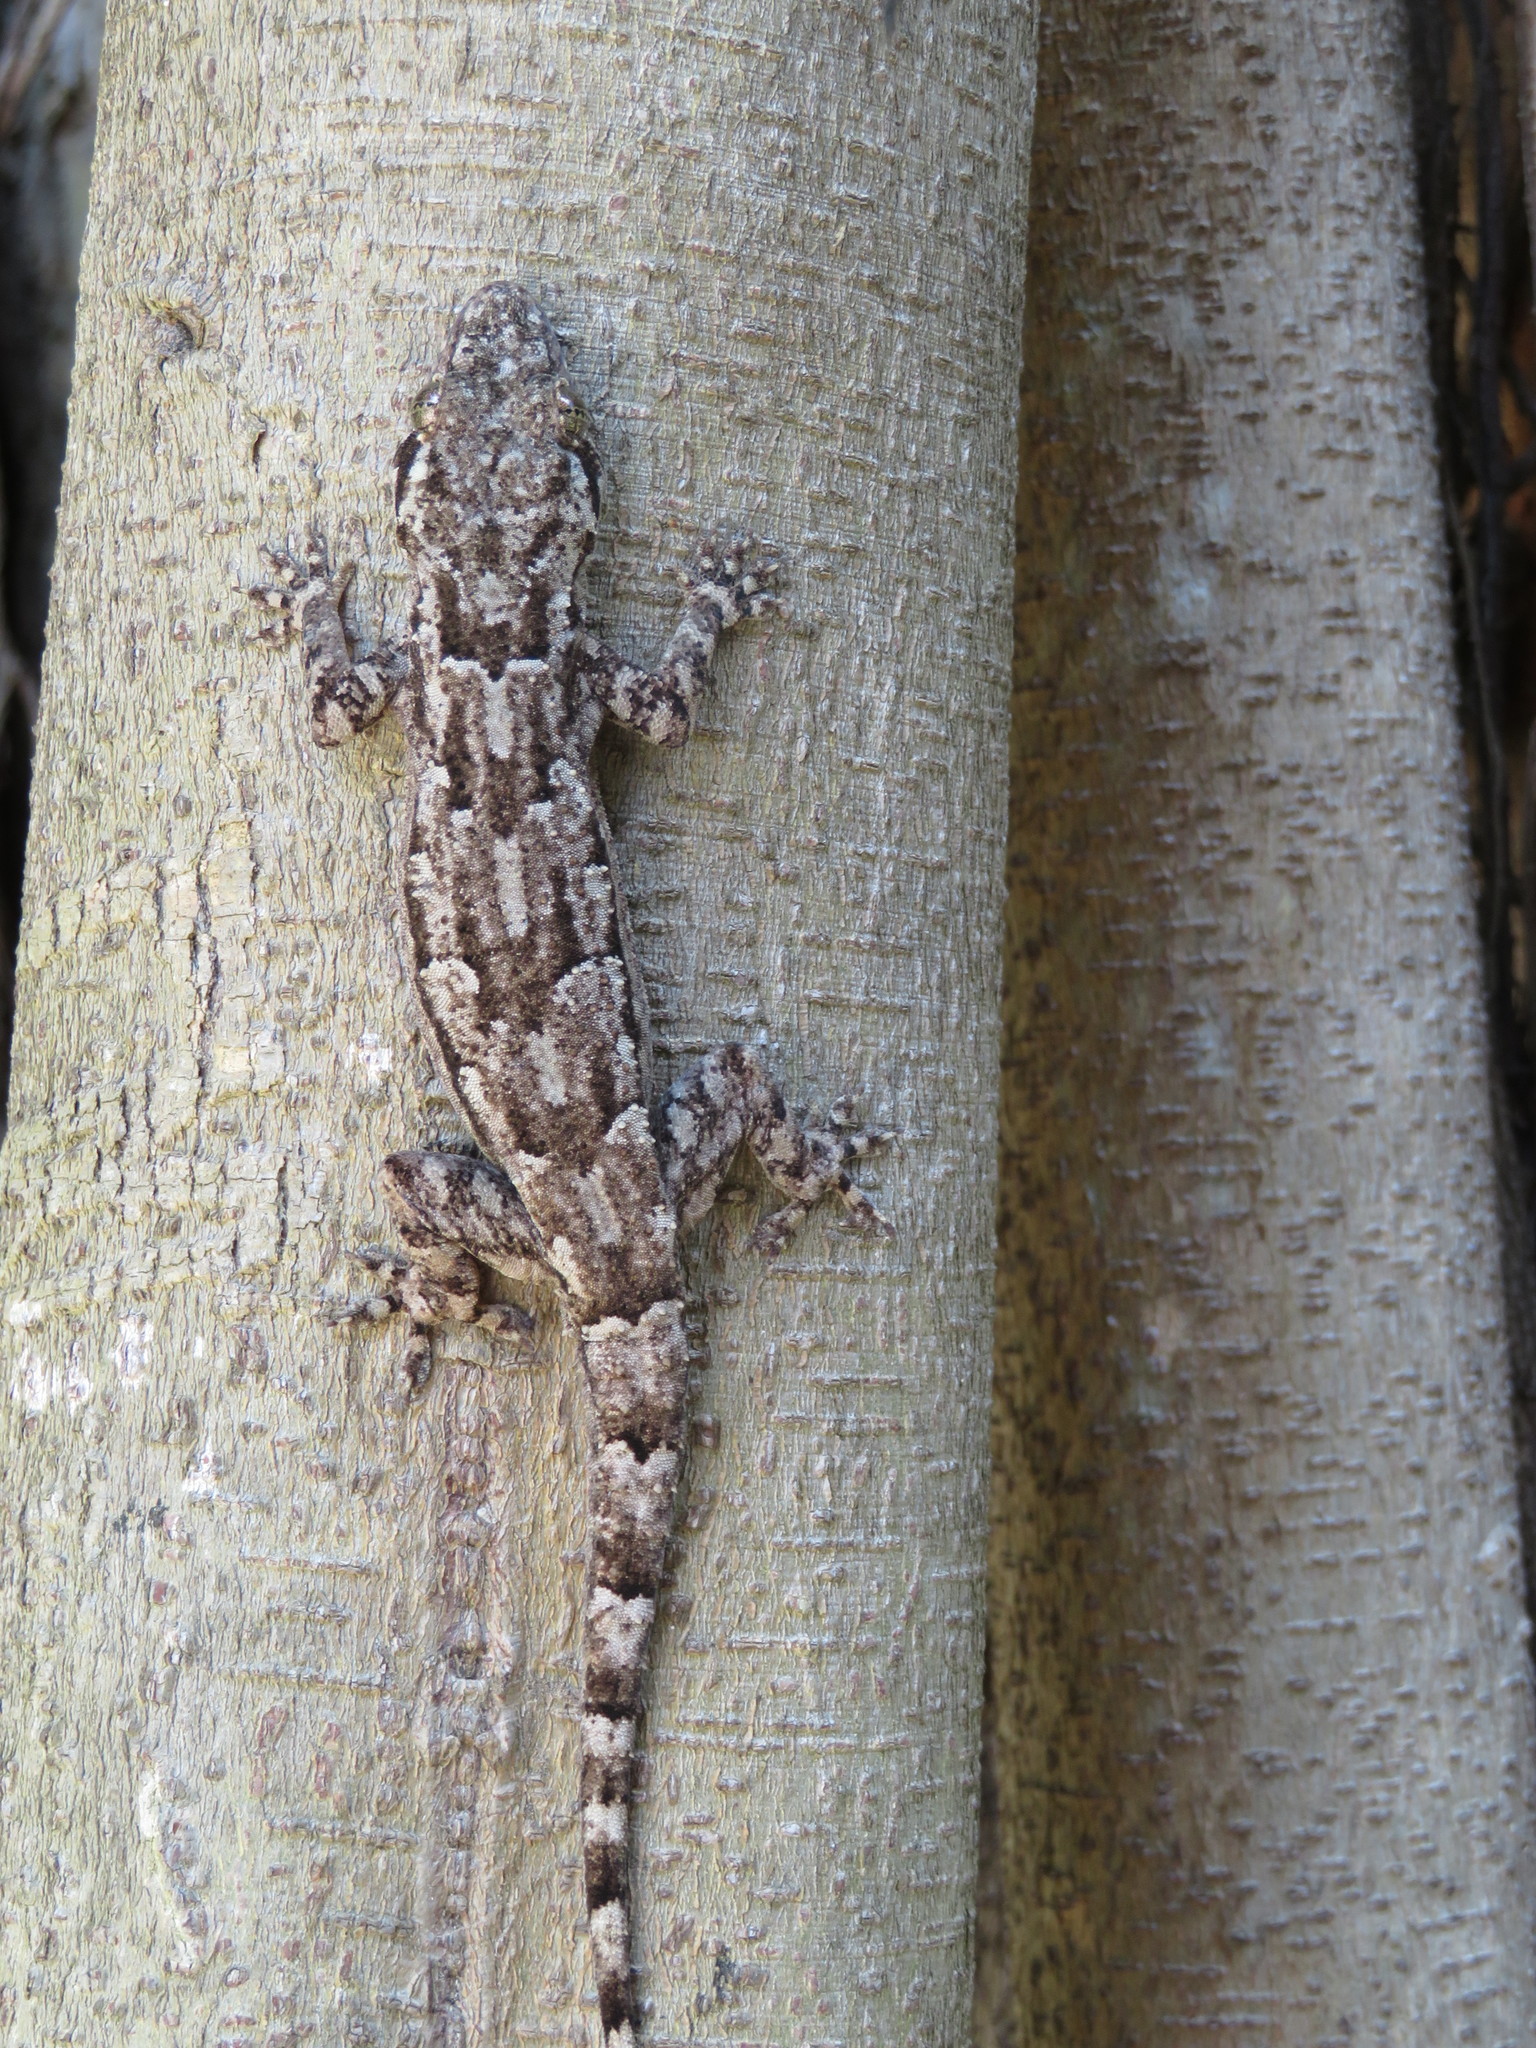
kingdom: Animalia
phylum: Chordata
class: Squamata
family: Gekkonidae
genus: Hemidactylus
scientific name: Hemidactylus platycephalus
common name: Baobab gecko
